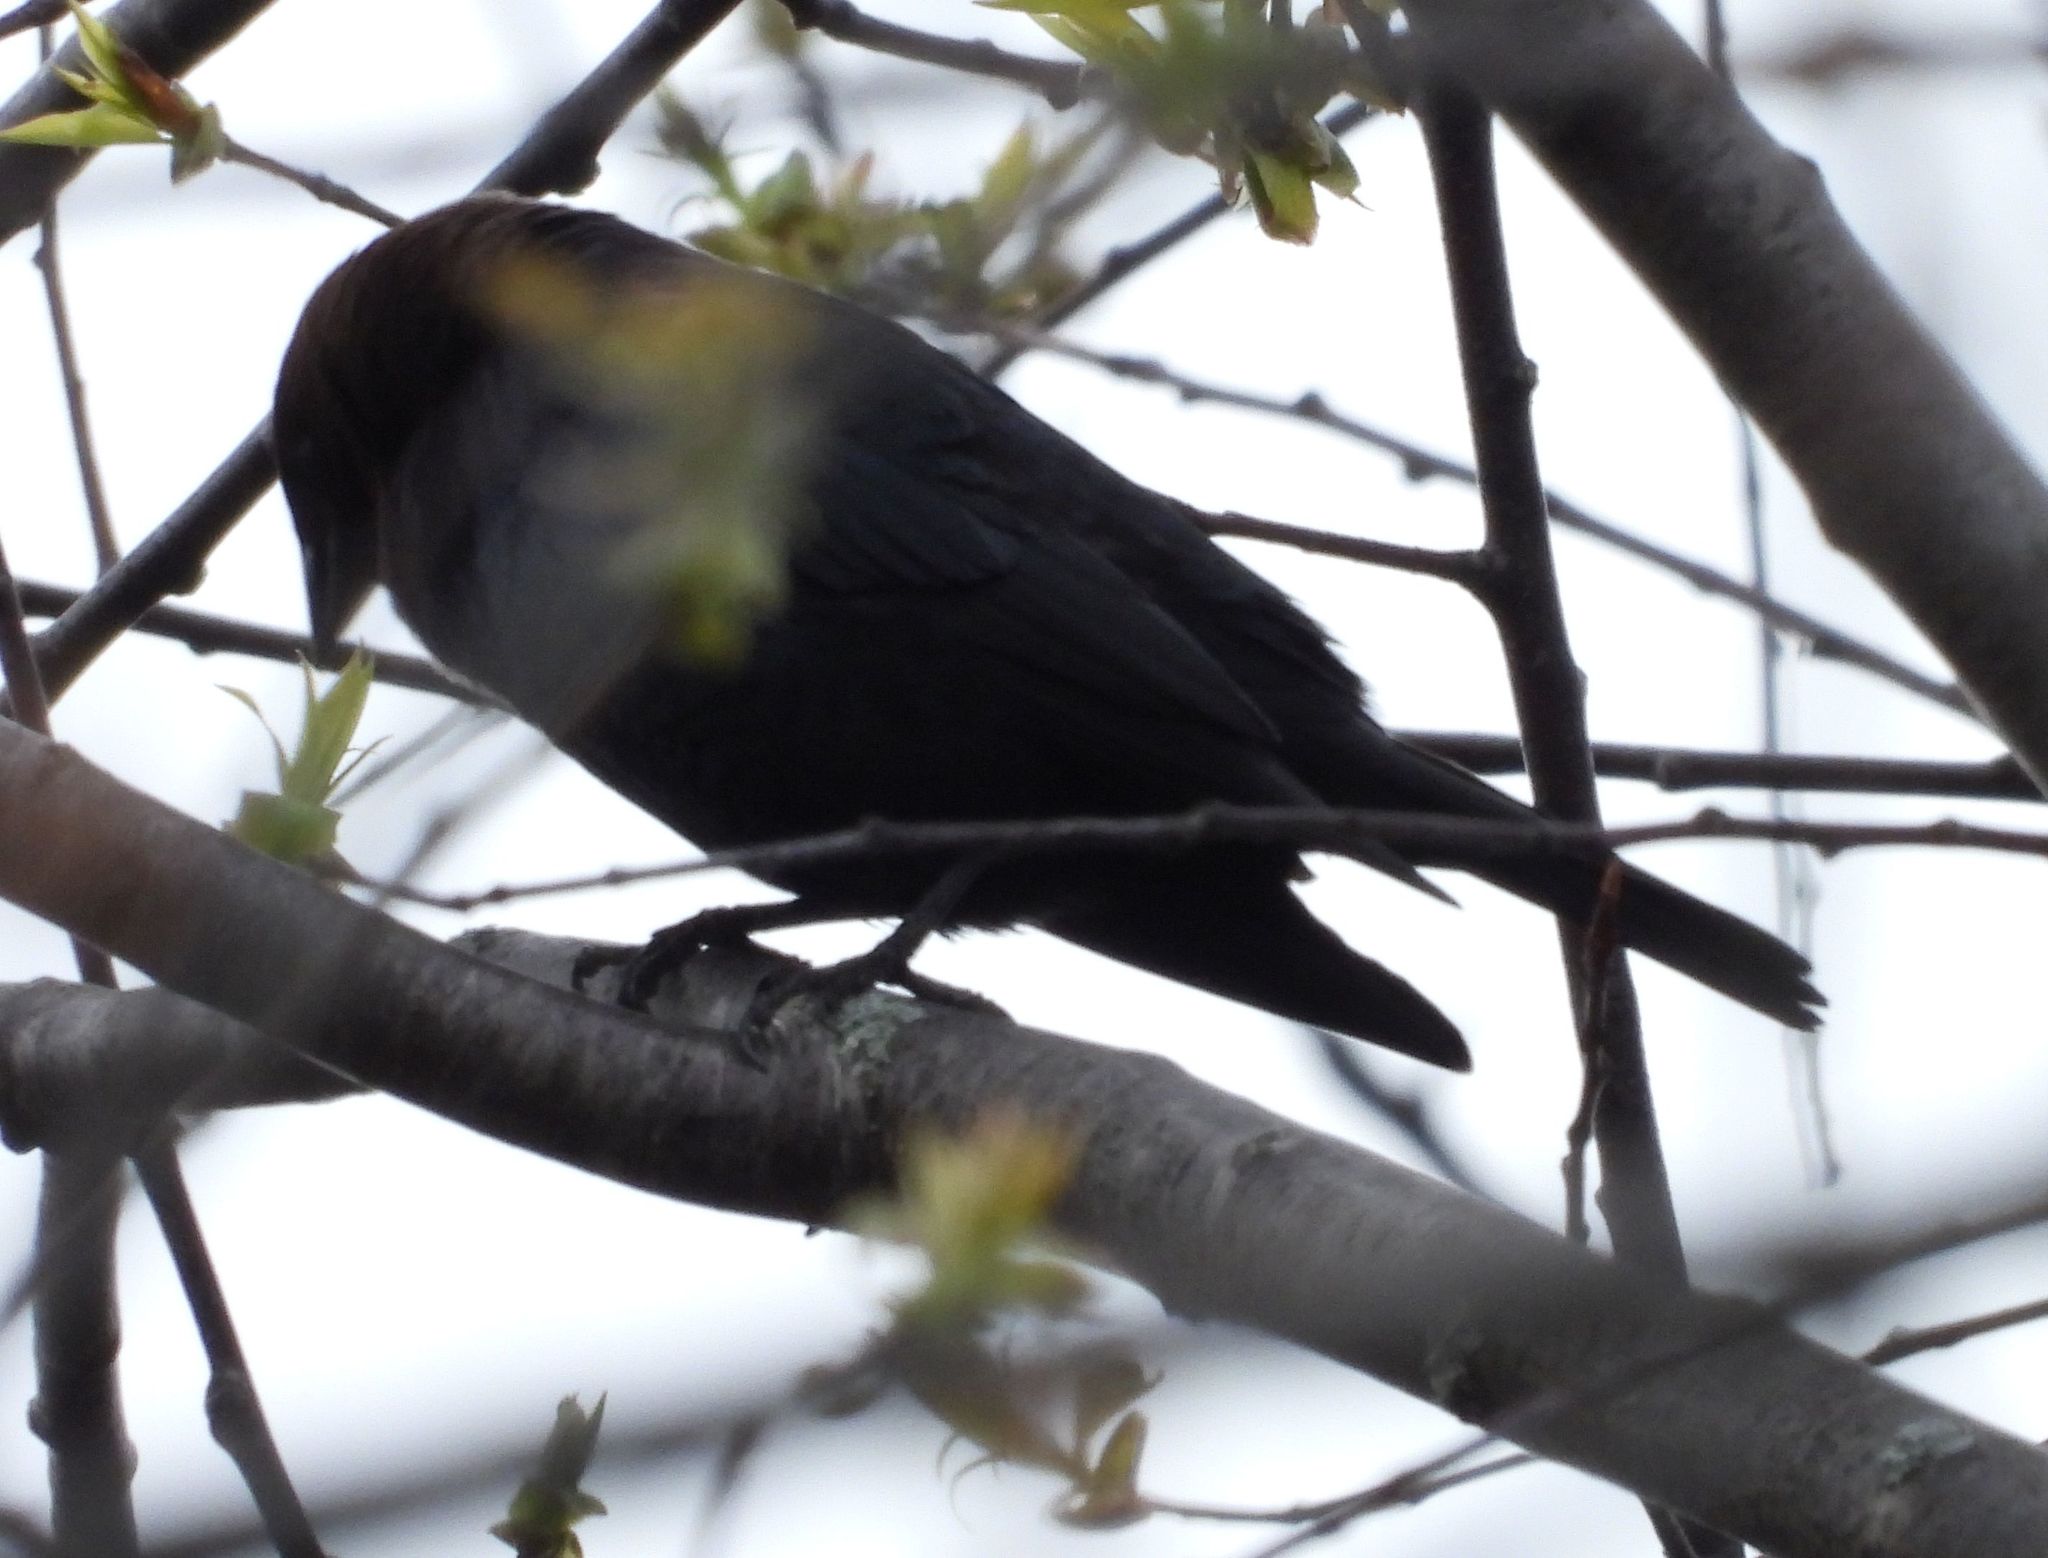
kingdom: Animalia
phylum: Chordata
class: Aves
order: Passeriformes
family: Icteridae
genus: Molothrus
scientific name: Molothrus ater
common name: Brown-headed cowbird
